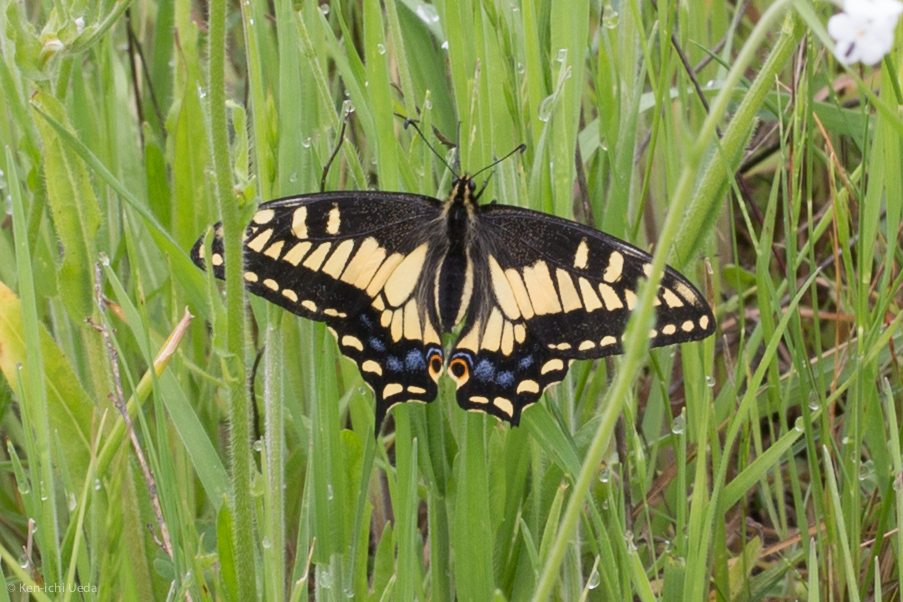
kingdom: Animalia
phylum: Arthropoda
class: Insecta
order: Lepidoptera
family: Papilionidae
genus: Papilio
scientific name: Papilio zelicaon
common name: Anise swallowtail
